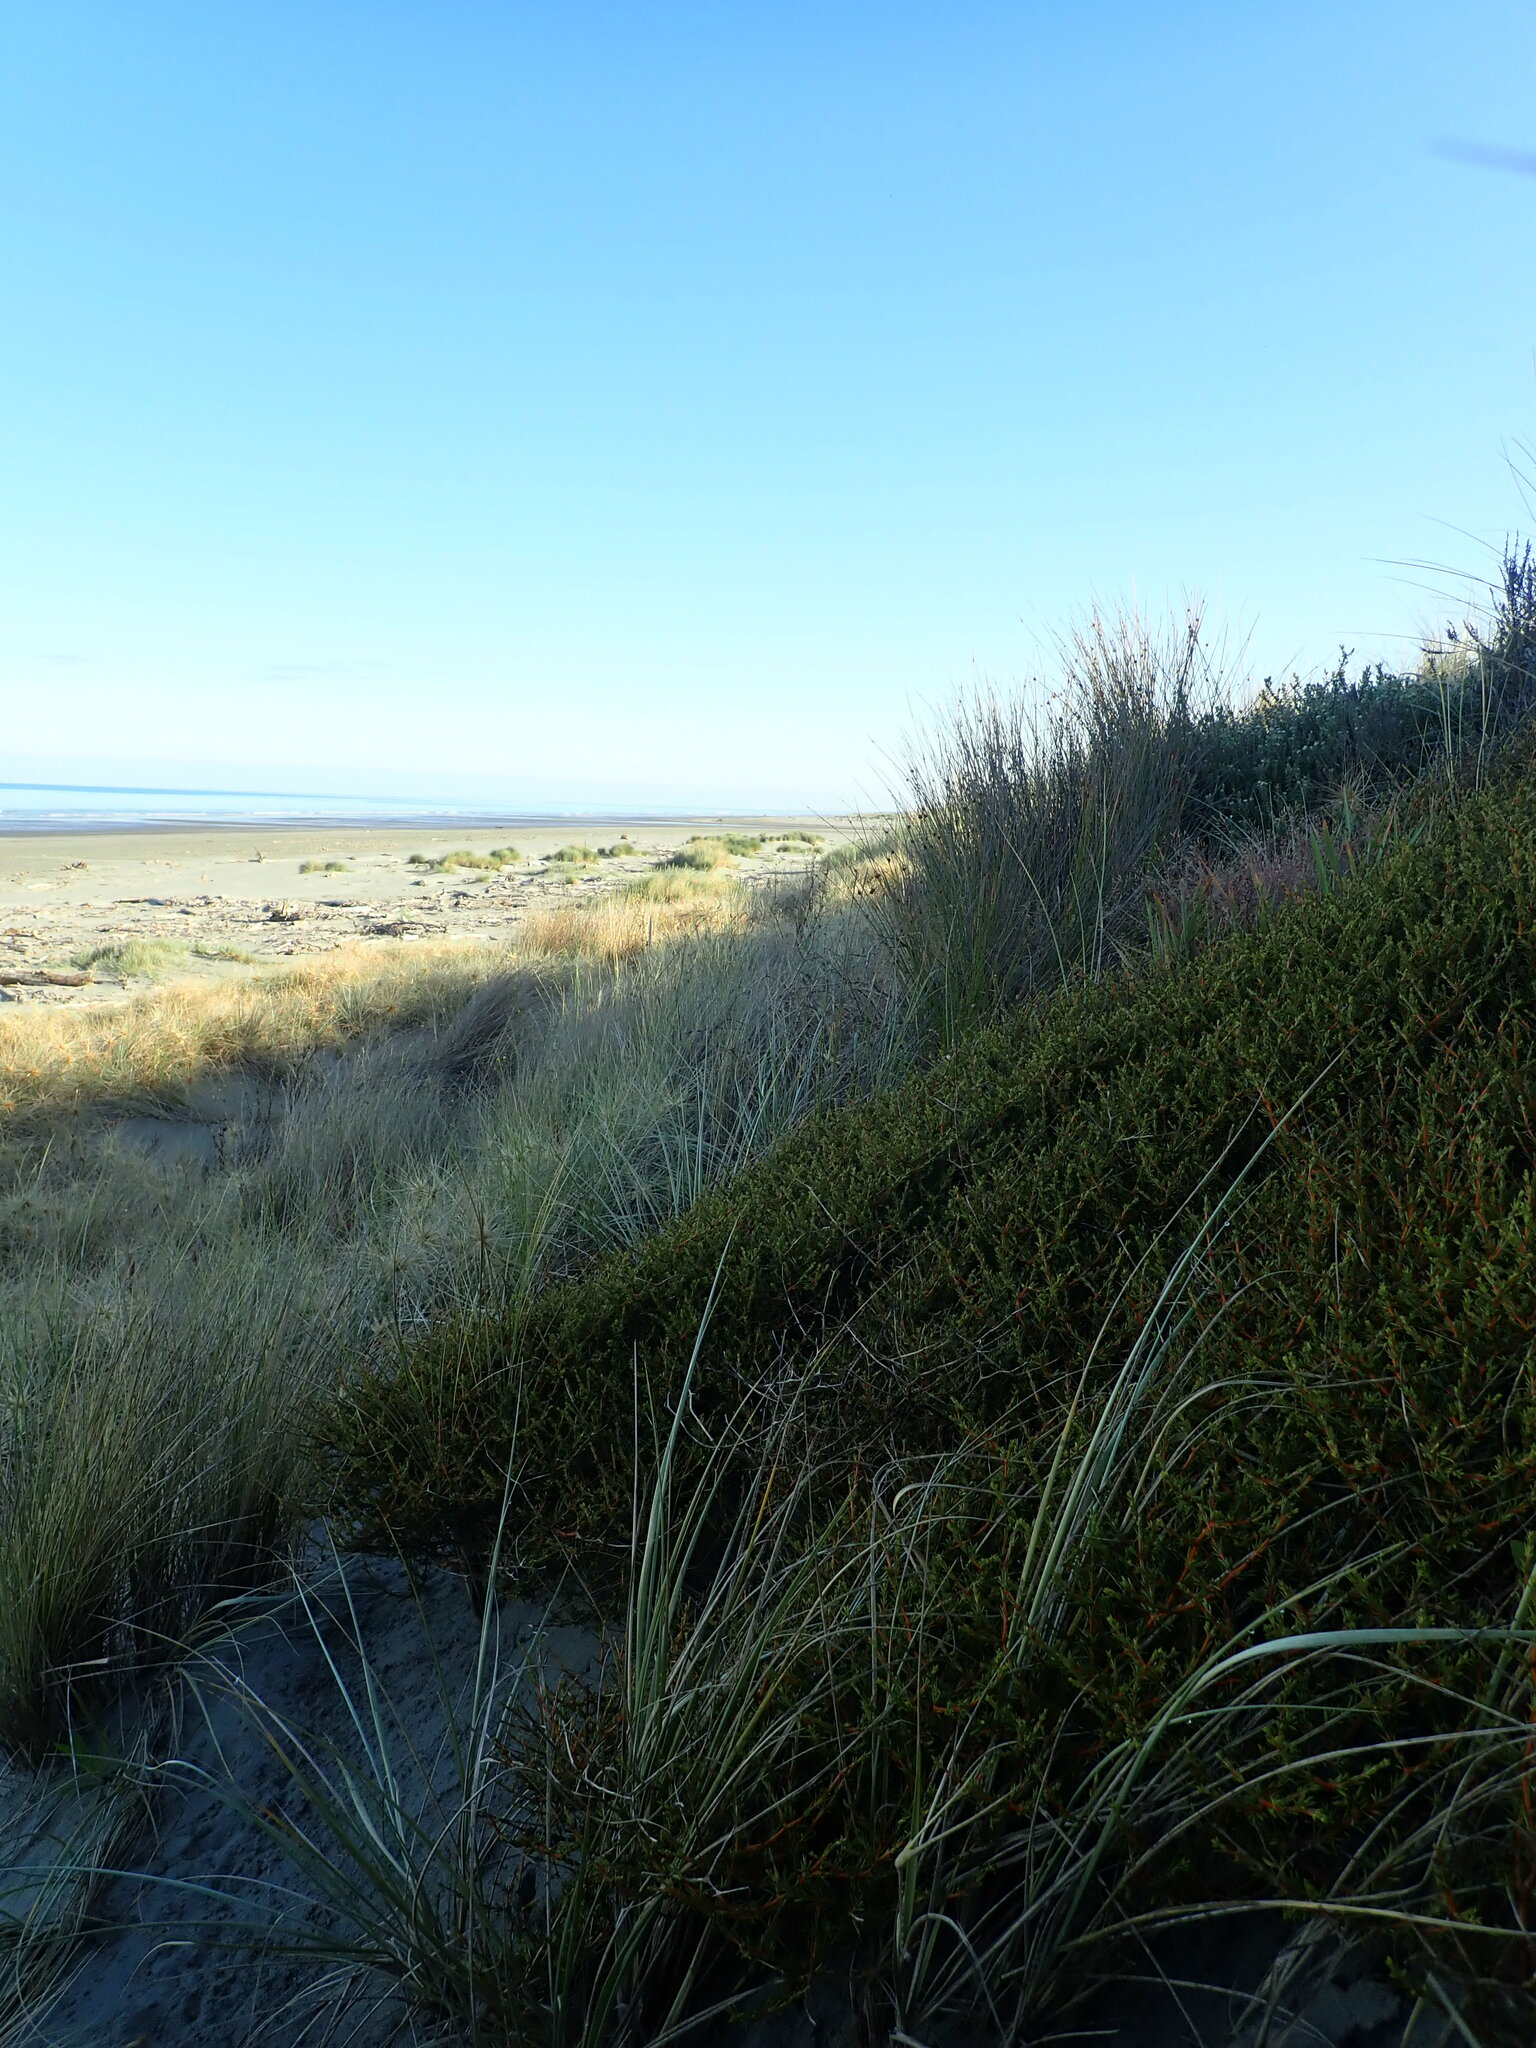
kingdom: Plantae
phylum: Tracheophyta
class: Magnoliopsida
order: Gentianales
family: Rubiaceae
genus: Coprosma
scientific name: Coprosma acerosa
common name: Sand coprosma
